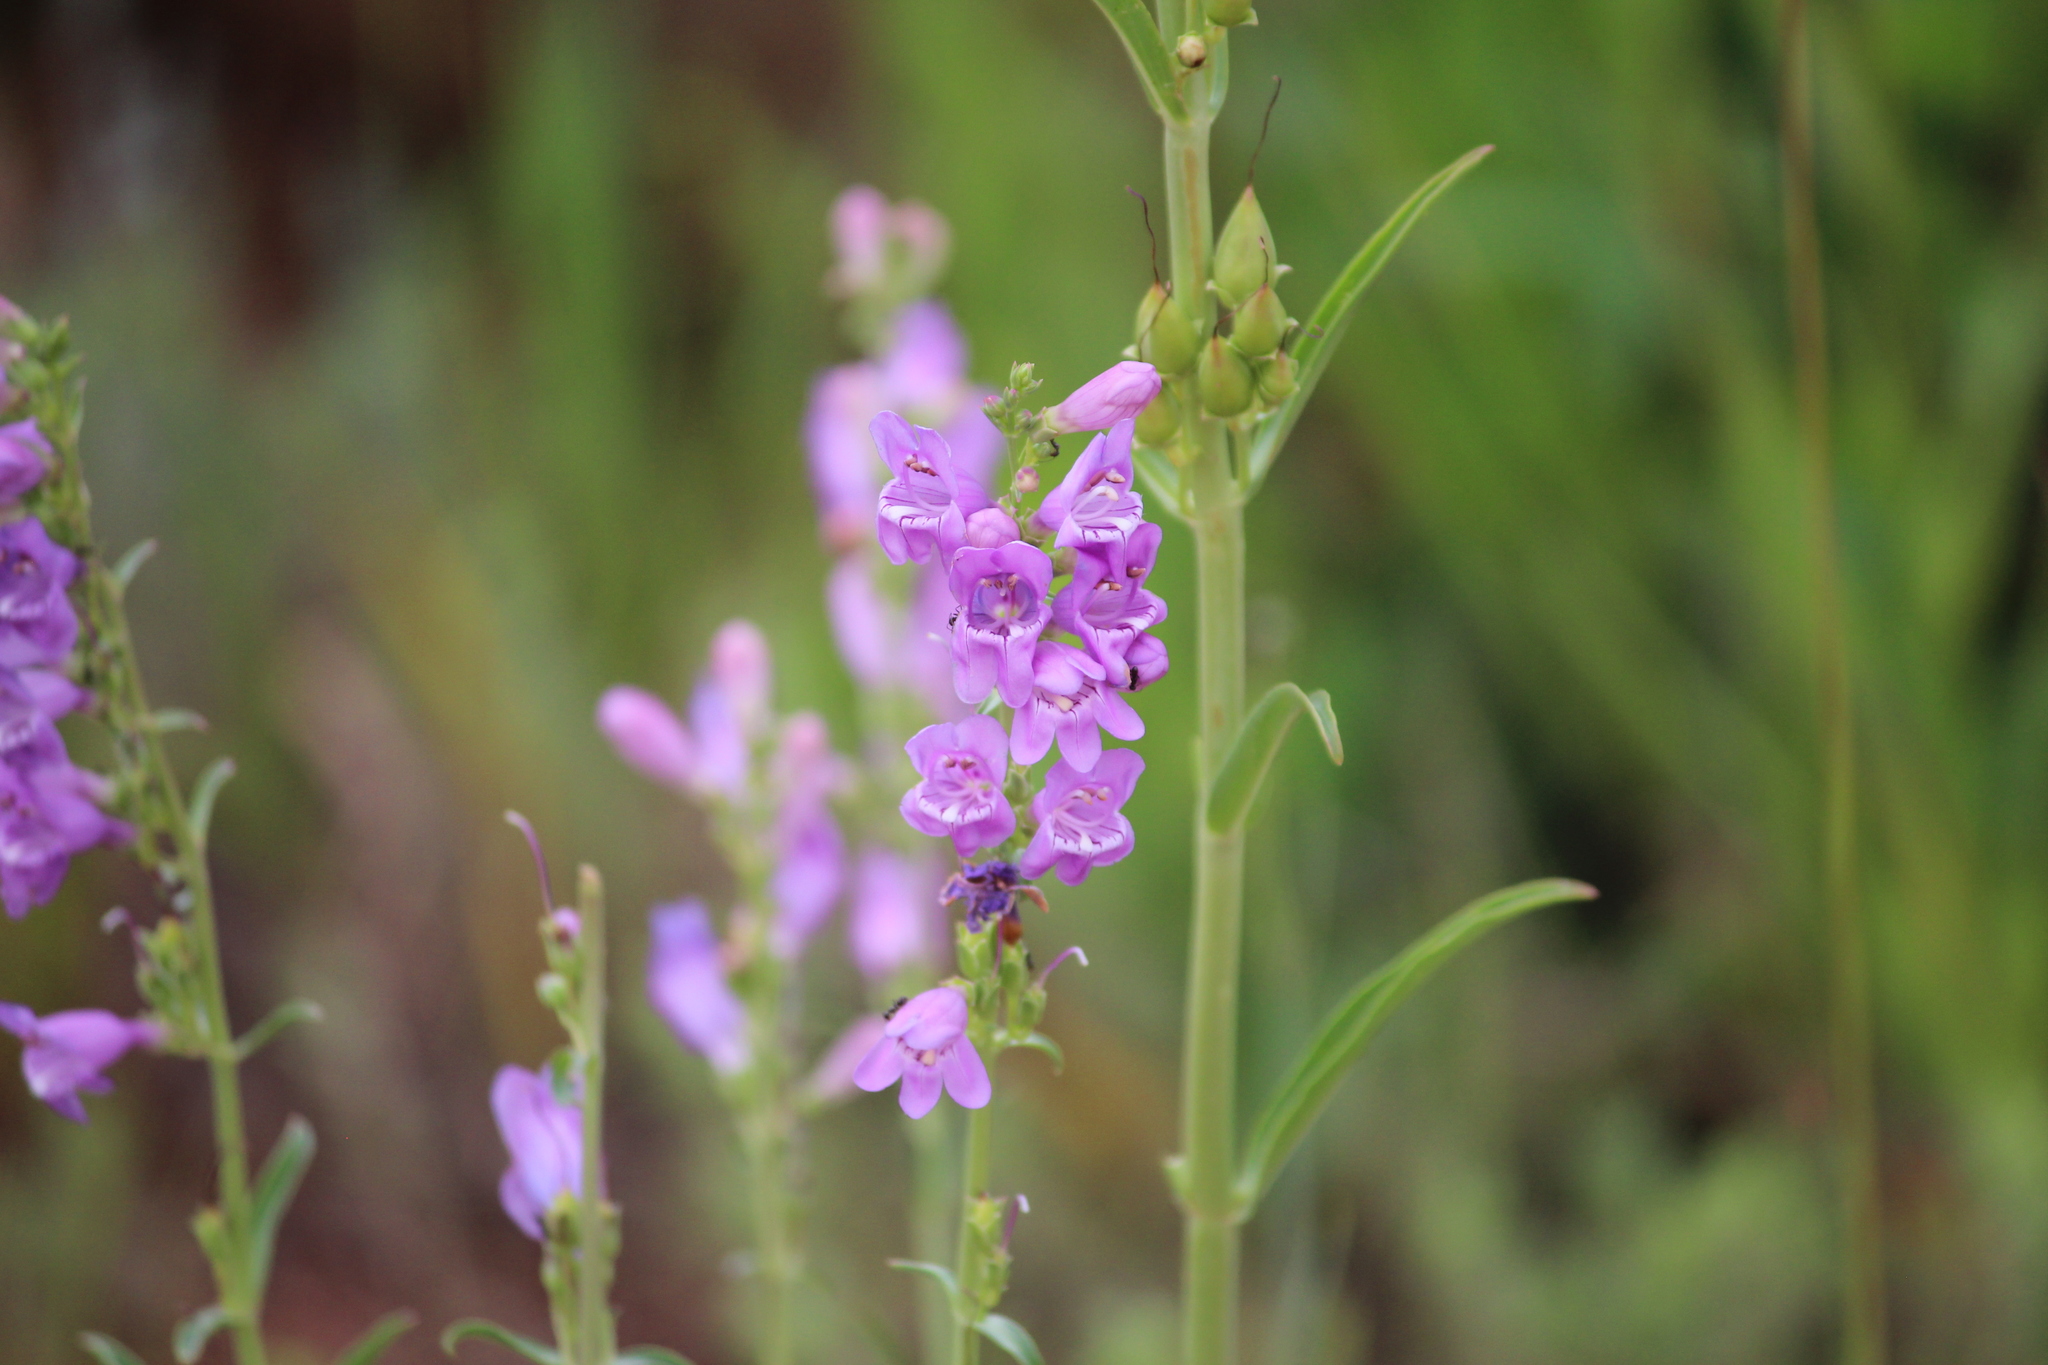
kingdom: Plantae
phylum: Tracheophyta
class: Magnoliopsida
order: Lamiales
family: Plantaginaceae
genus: Penstemon
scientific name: Penstemon virgatus
